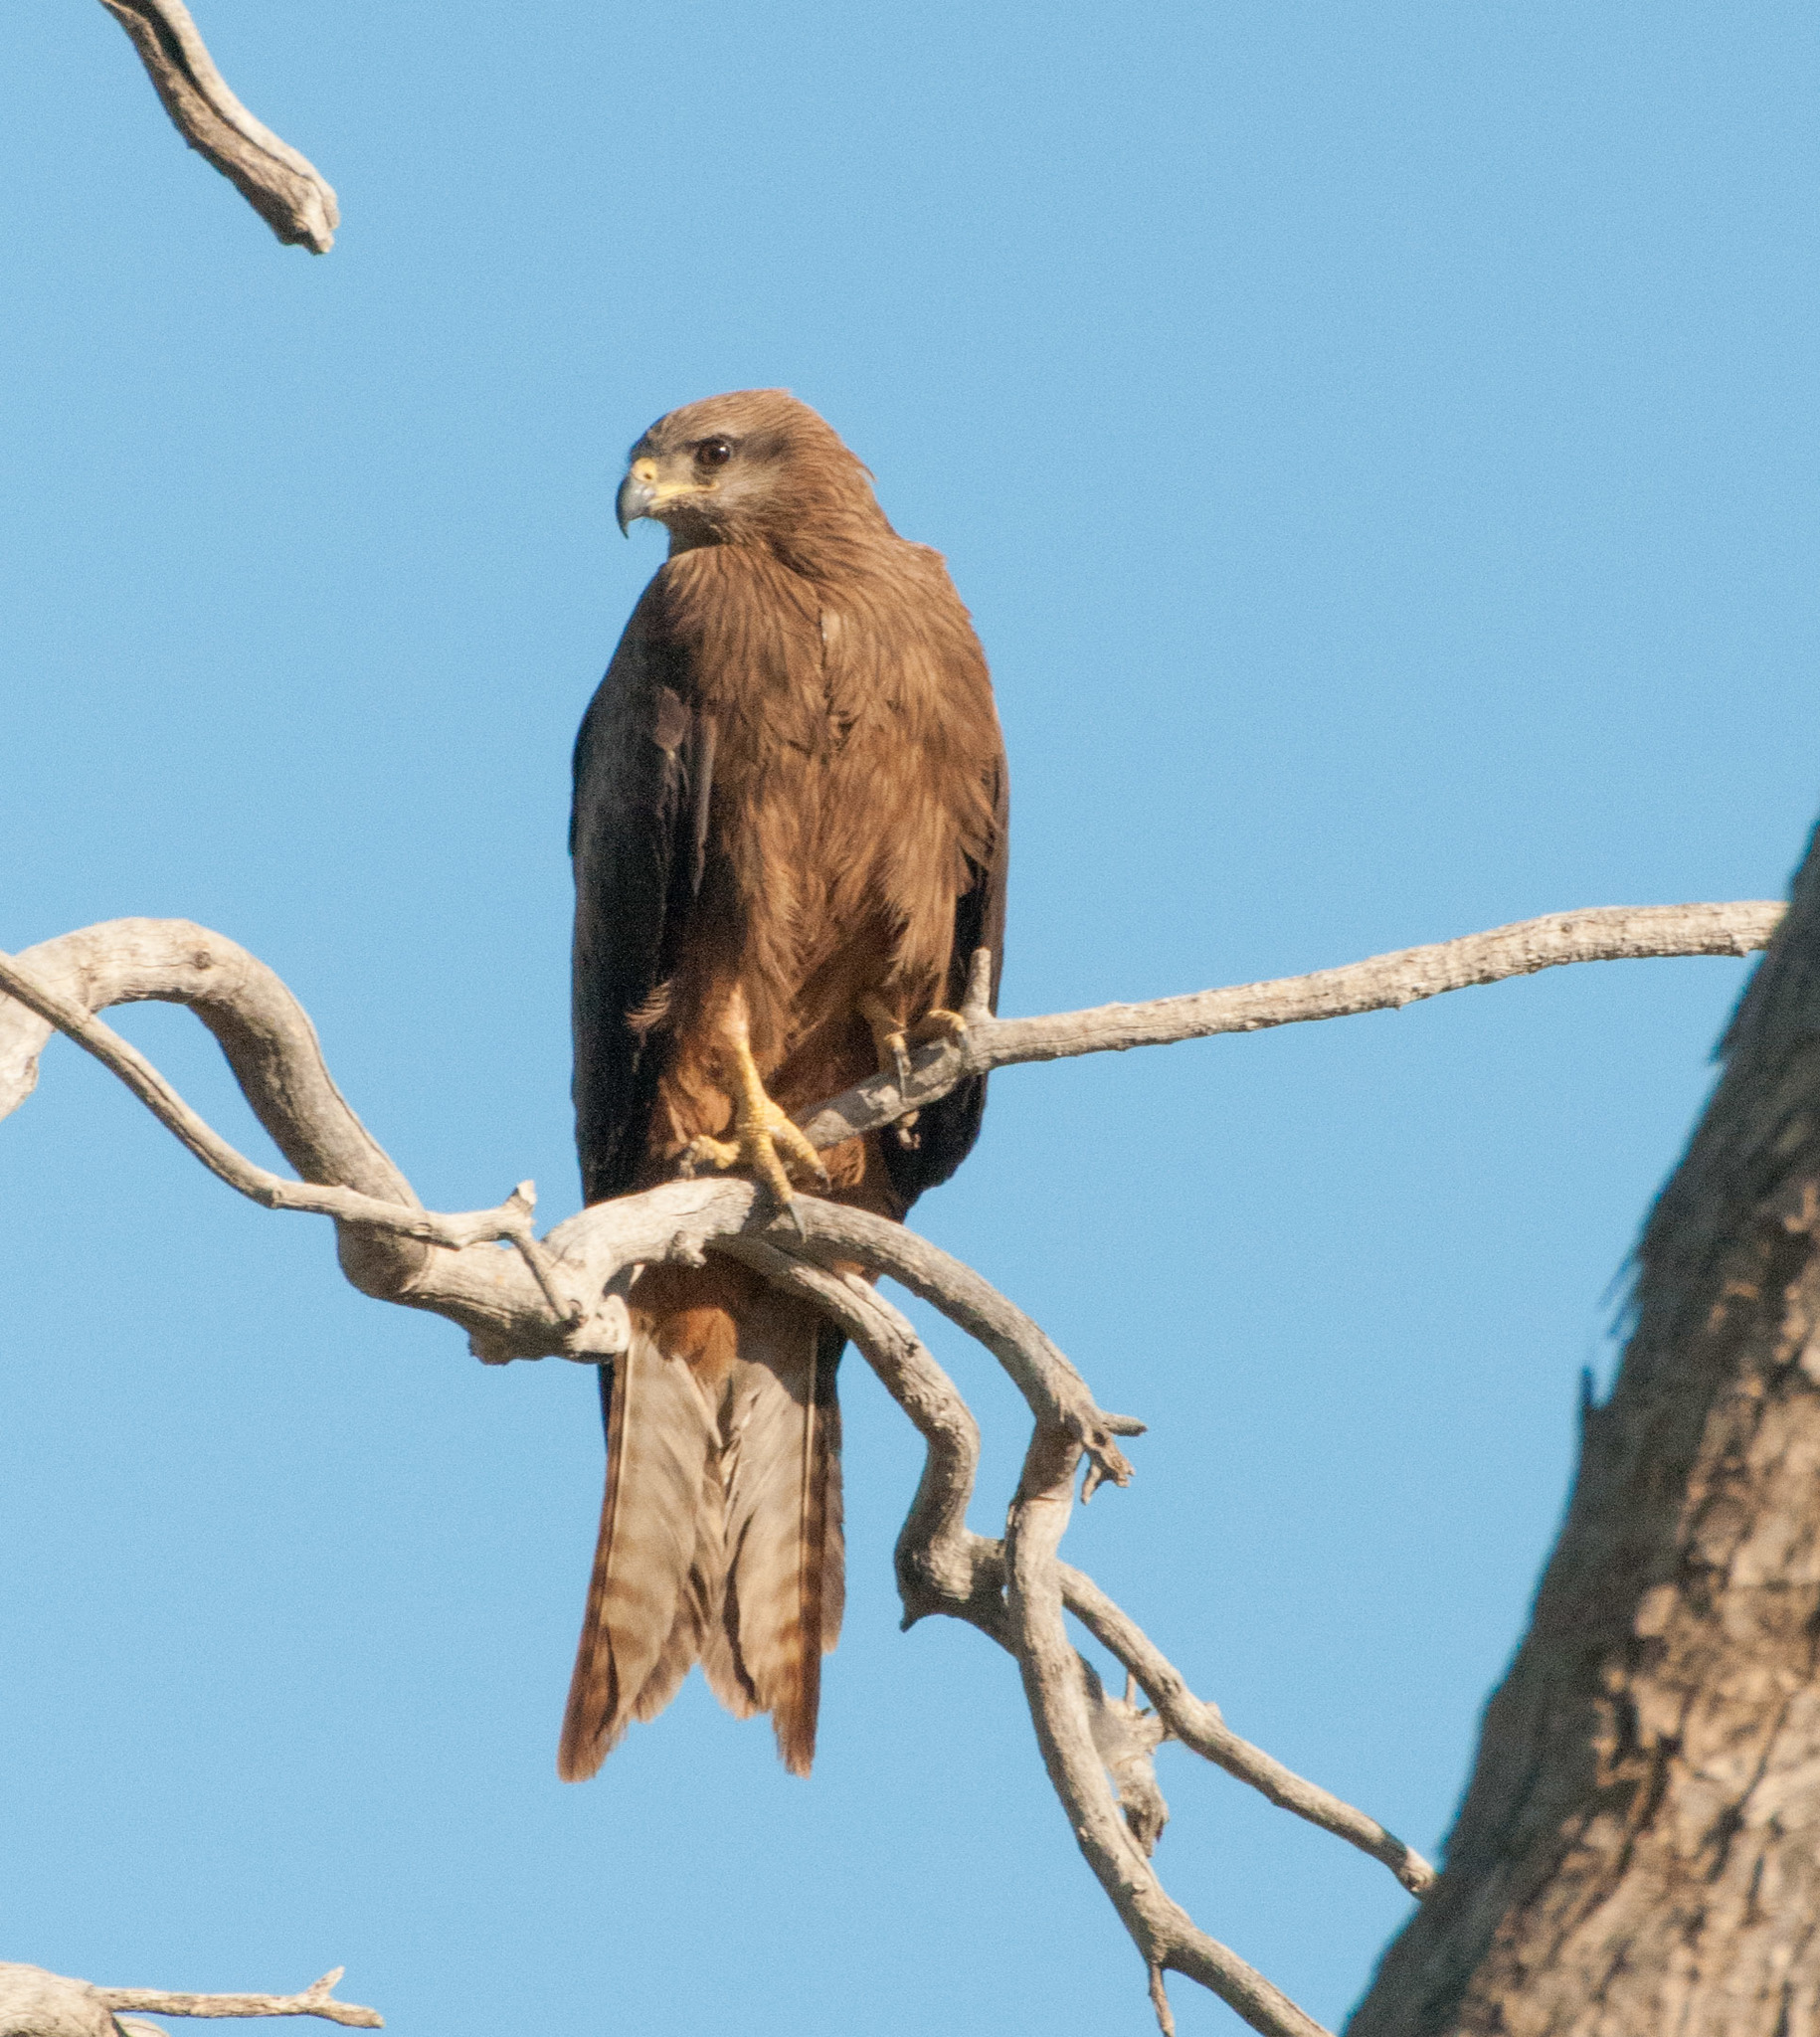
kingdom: Animalia
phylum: Chordata
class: Aves
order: Accipitriformes
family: Accipitridae
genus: Milvus
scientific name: Milvus migrans
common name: Black kite
